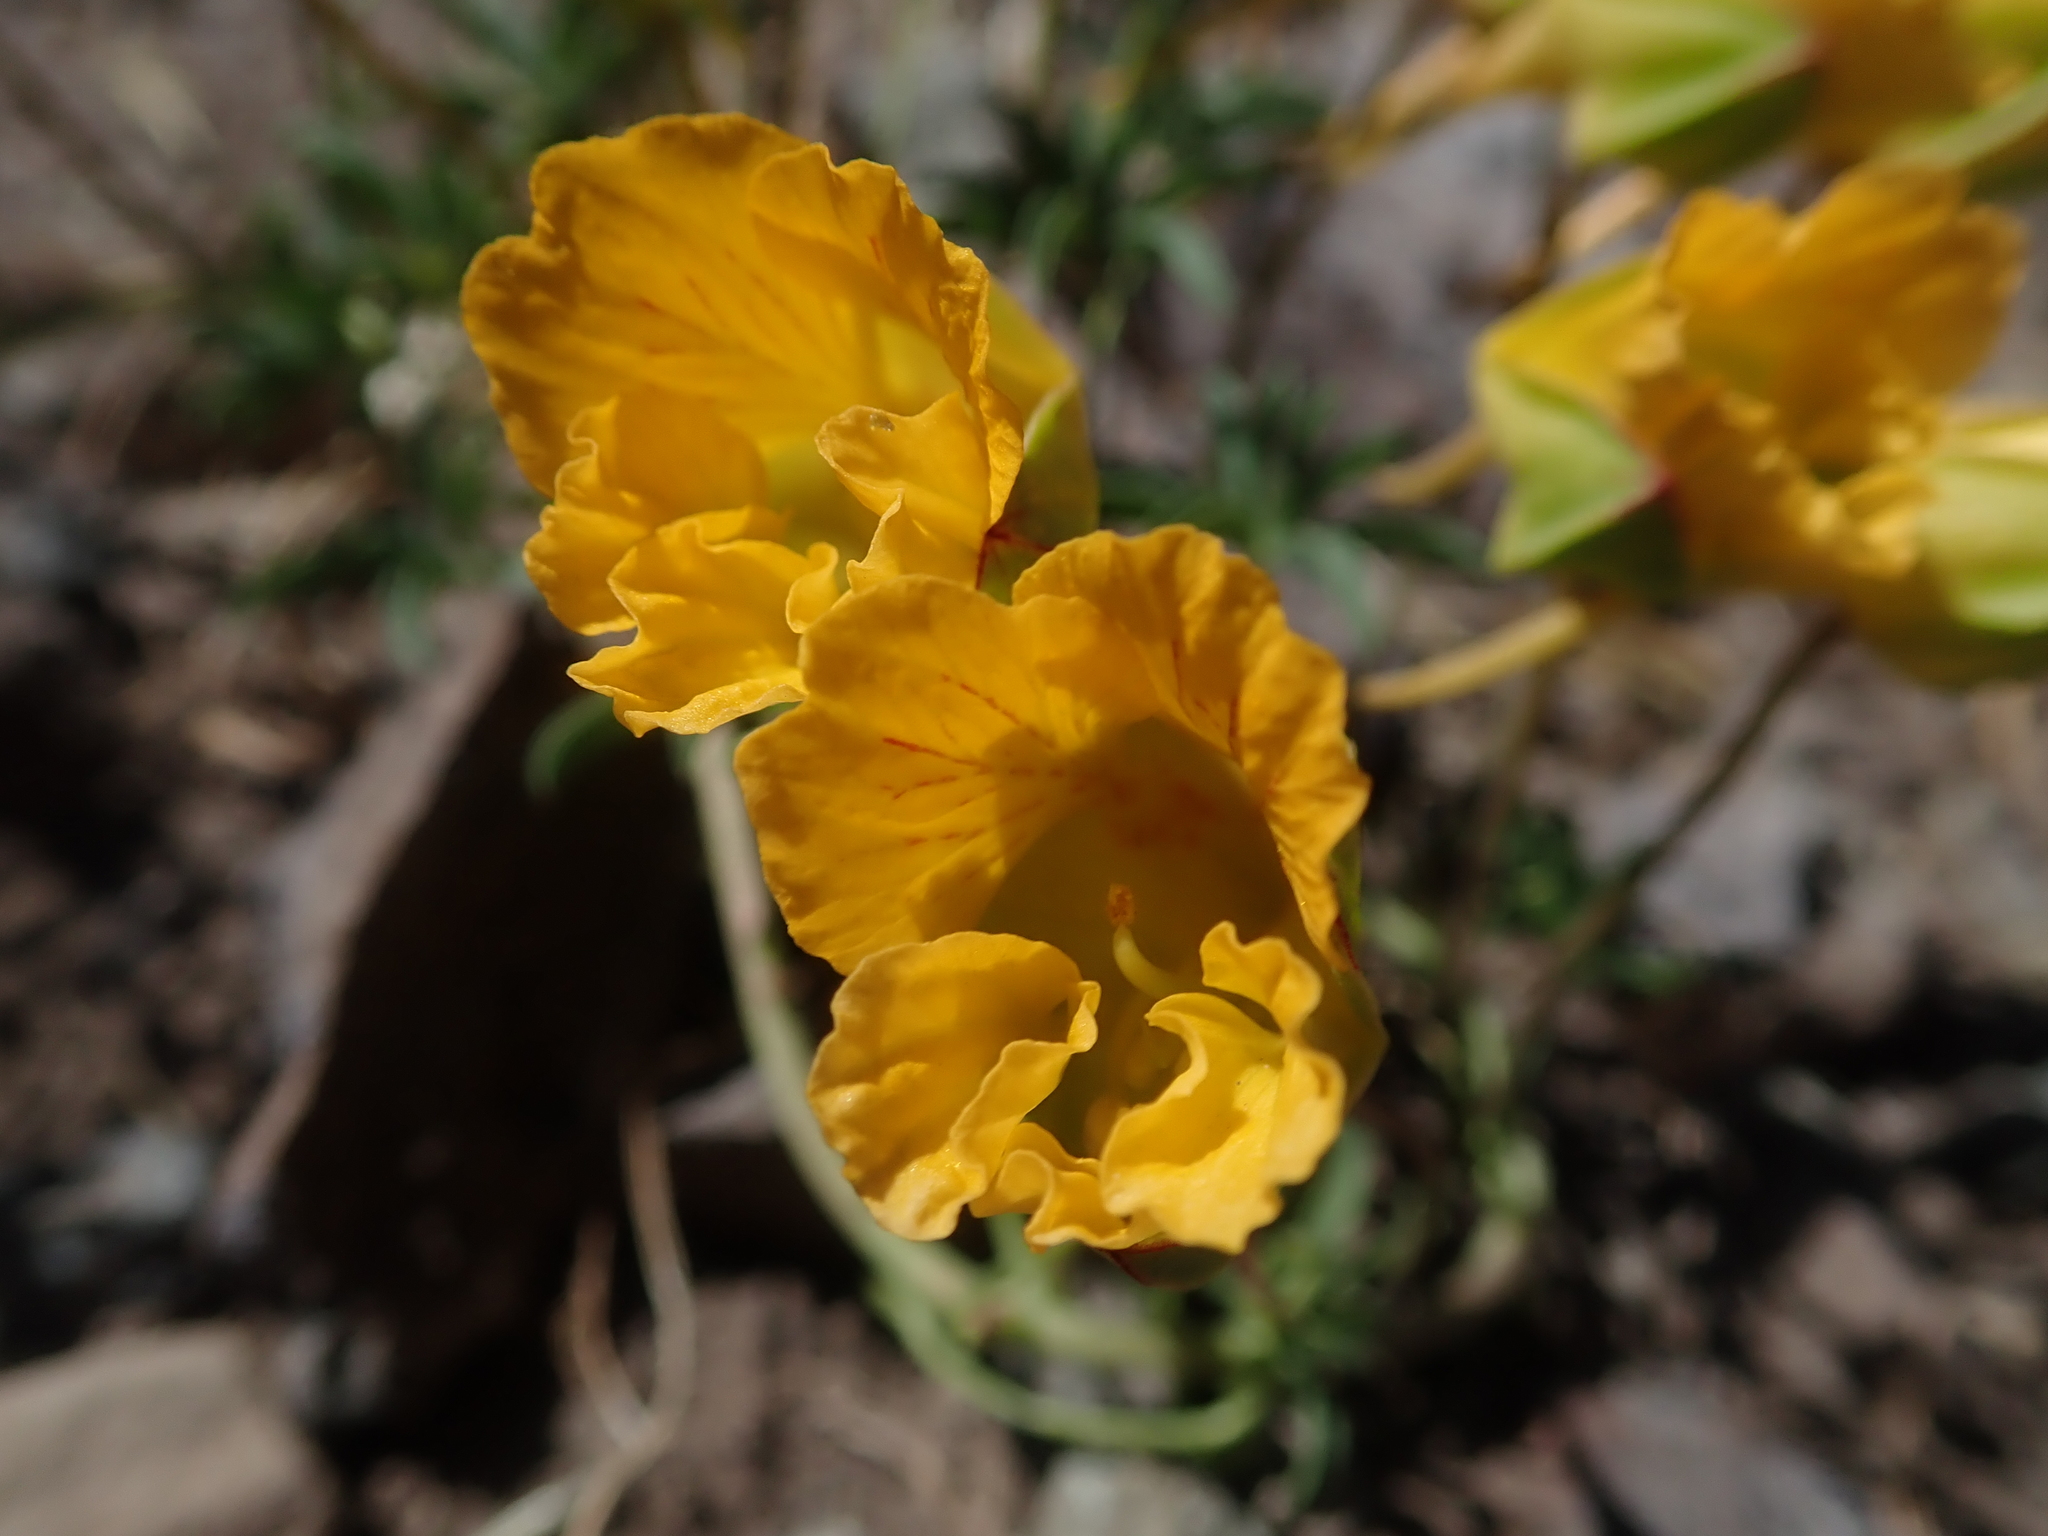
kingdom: Plantae
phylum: Tracheophyta
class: Magnoliopsida
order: Brassicales
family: Tropaeolaceae
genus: Tropaeolum
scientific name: Tropaeolum leptophyllum
